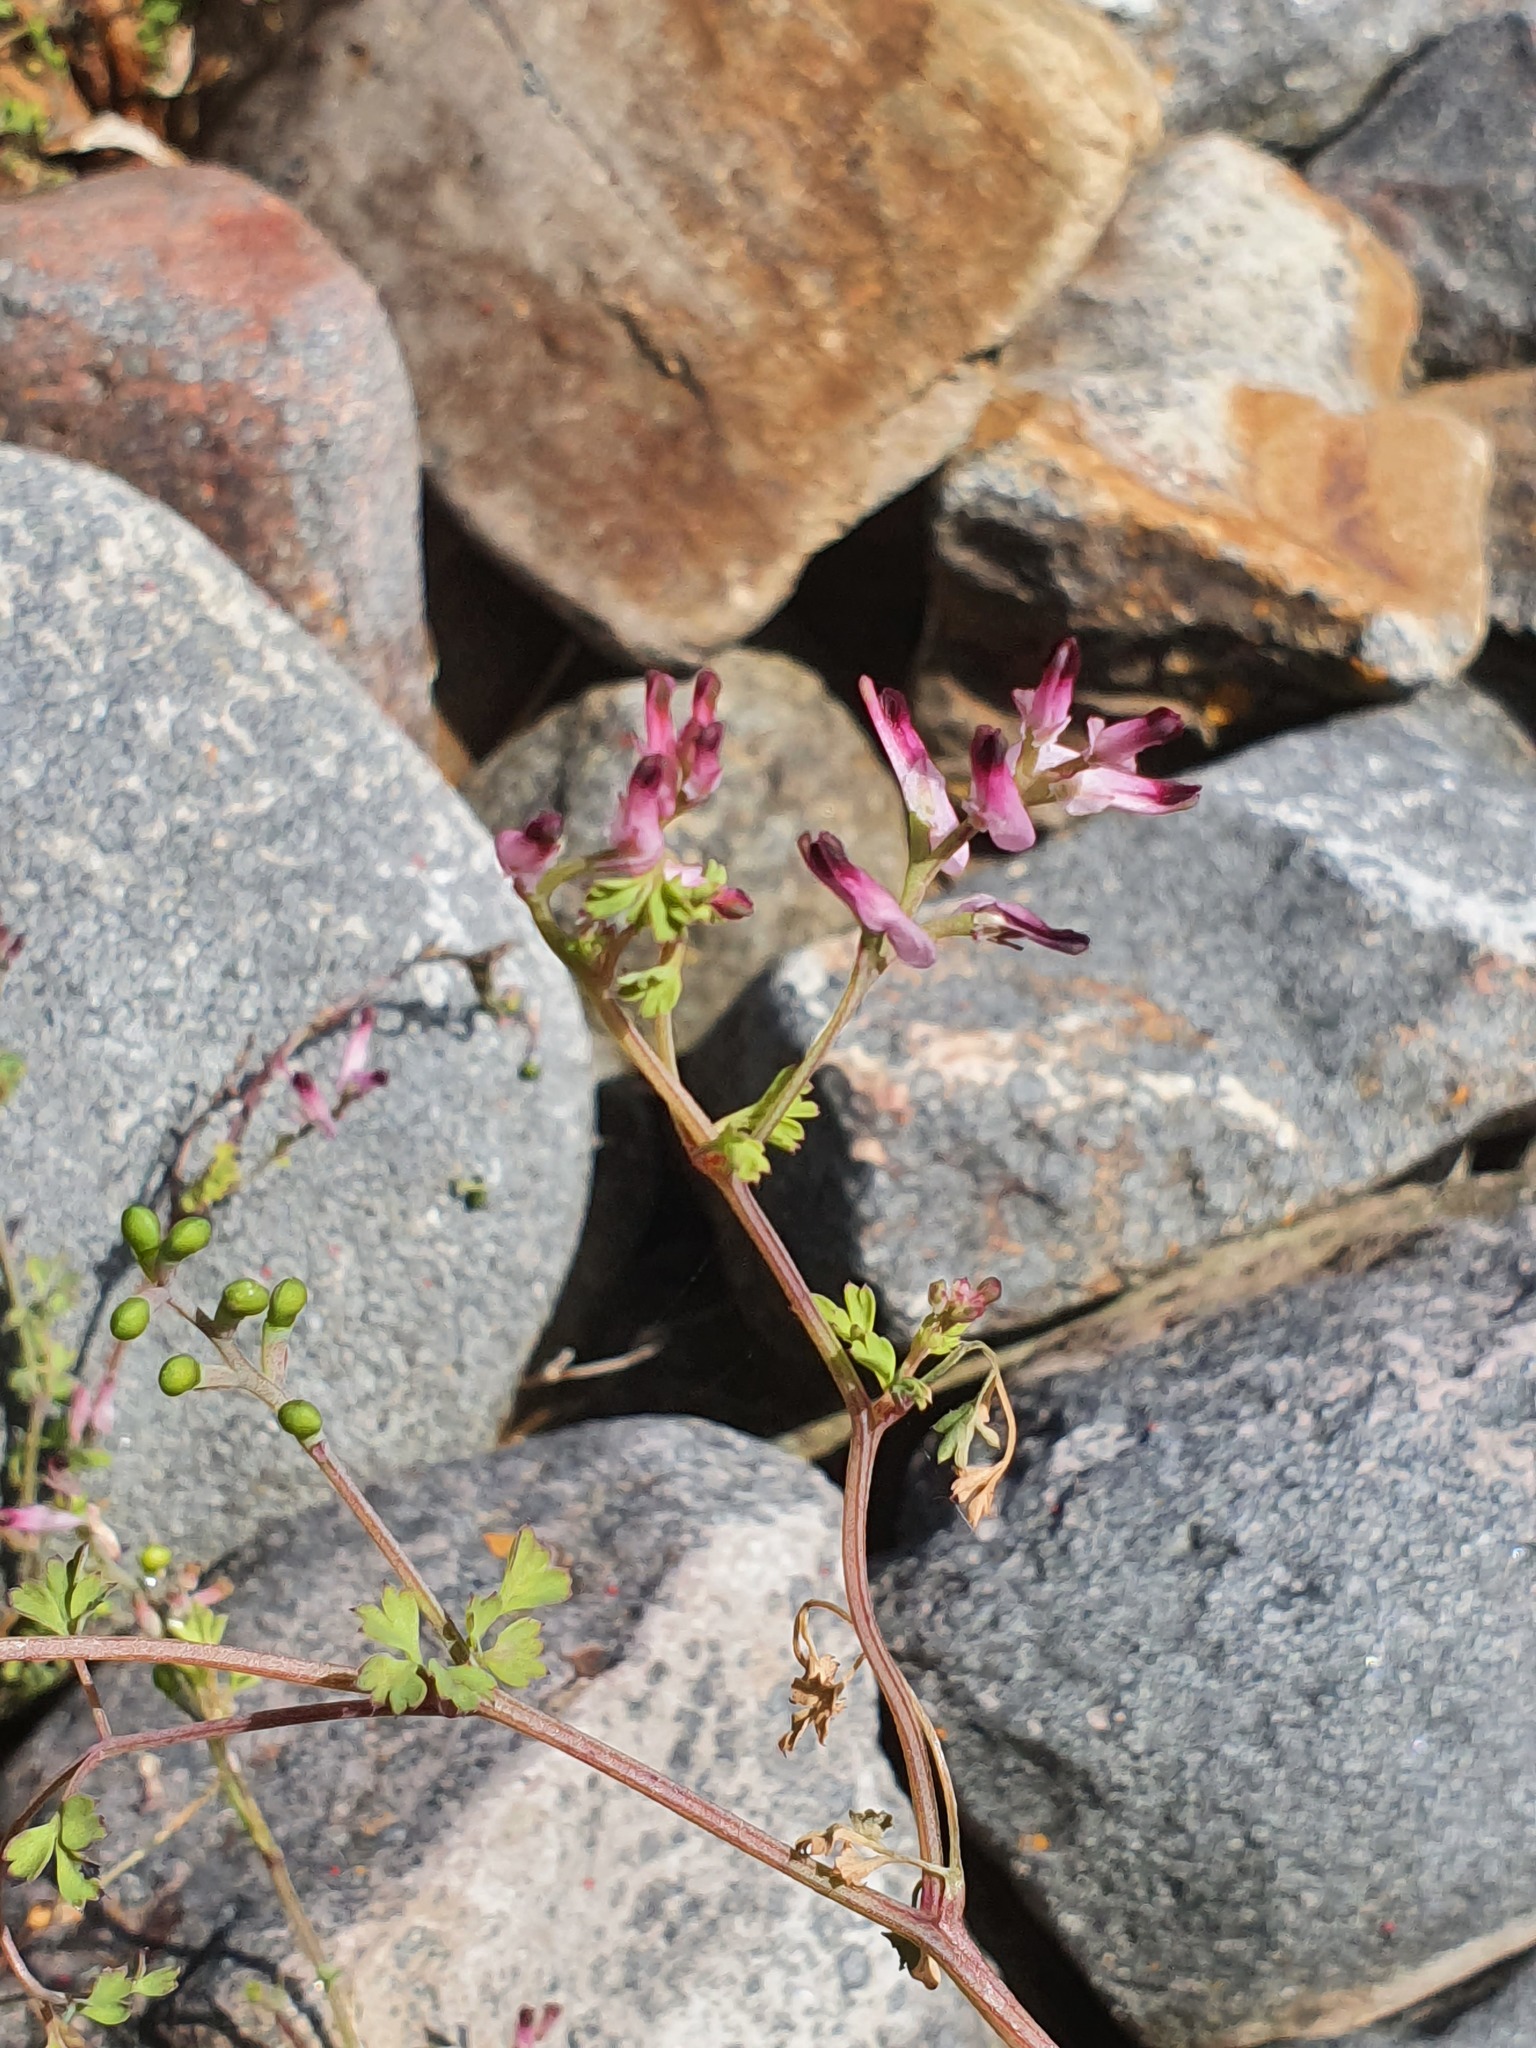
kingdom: Plantae
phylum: Tracheophyta
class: Magnoliopsida
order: Ranunculales
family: Papaveraceae
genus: Fumaria
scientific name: Fumaria muralis
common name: Common ramping-fumitory
